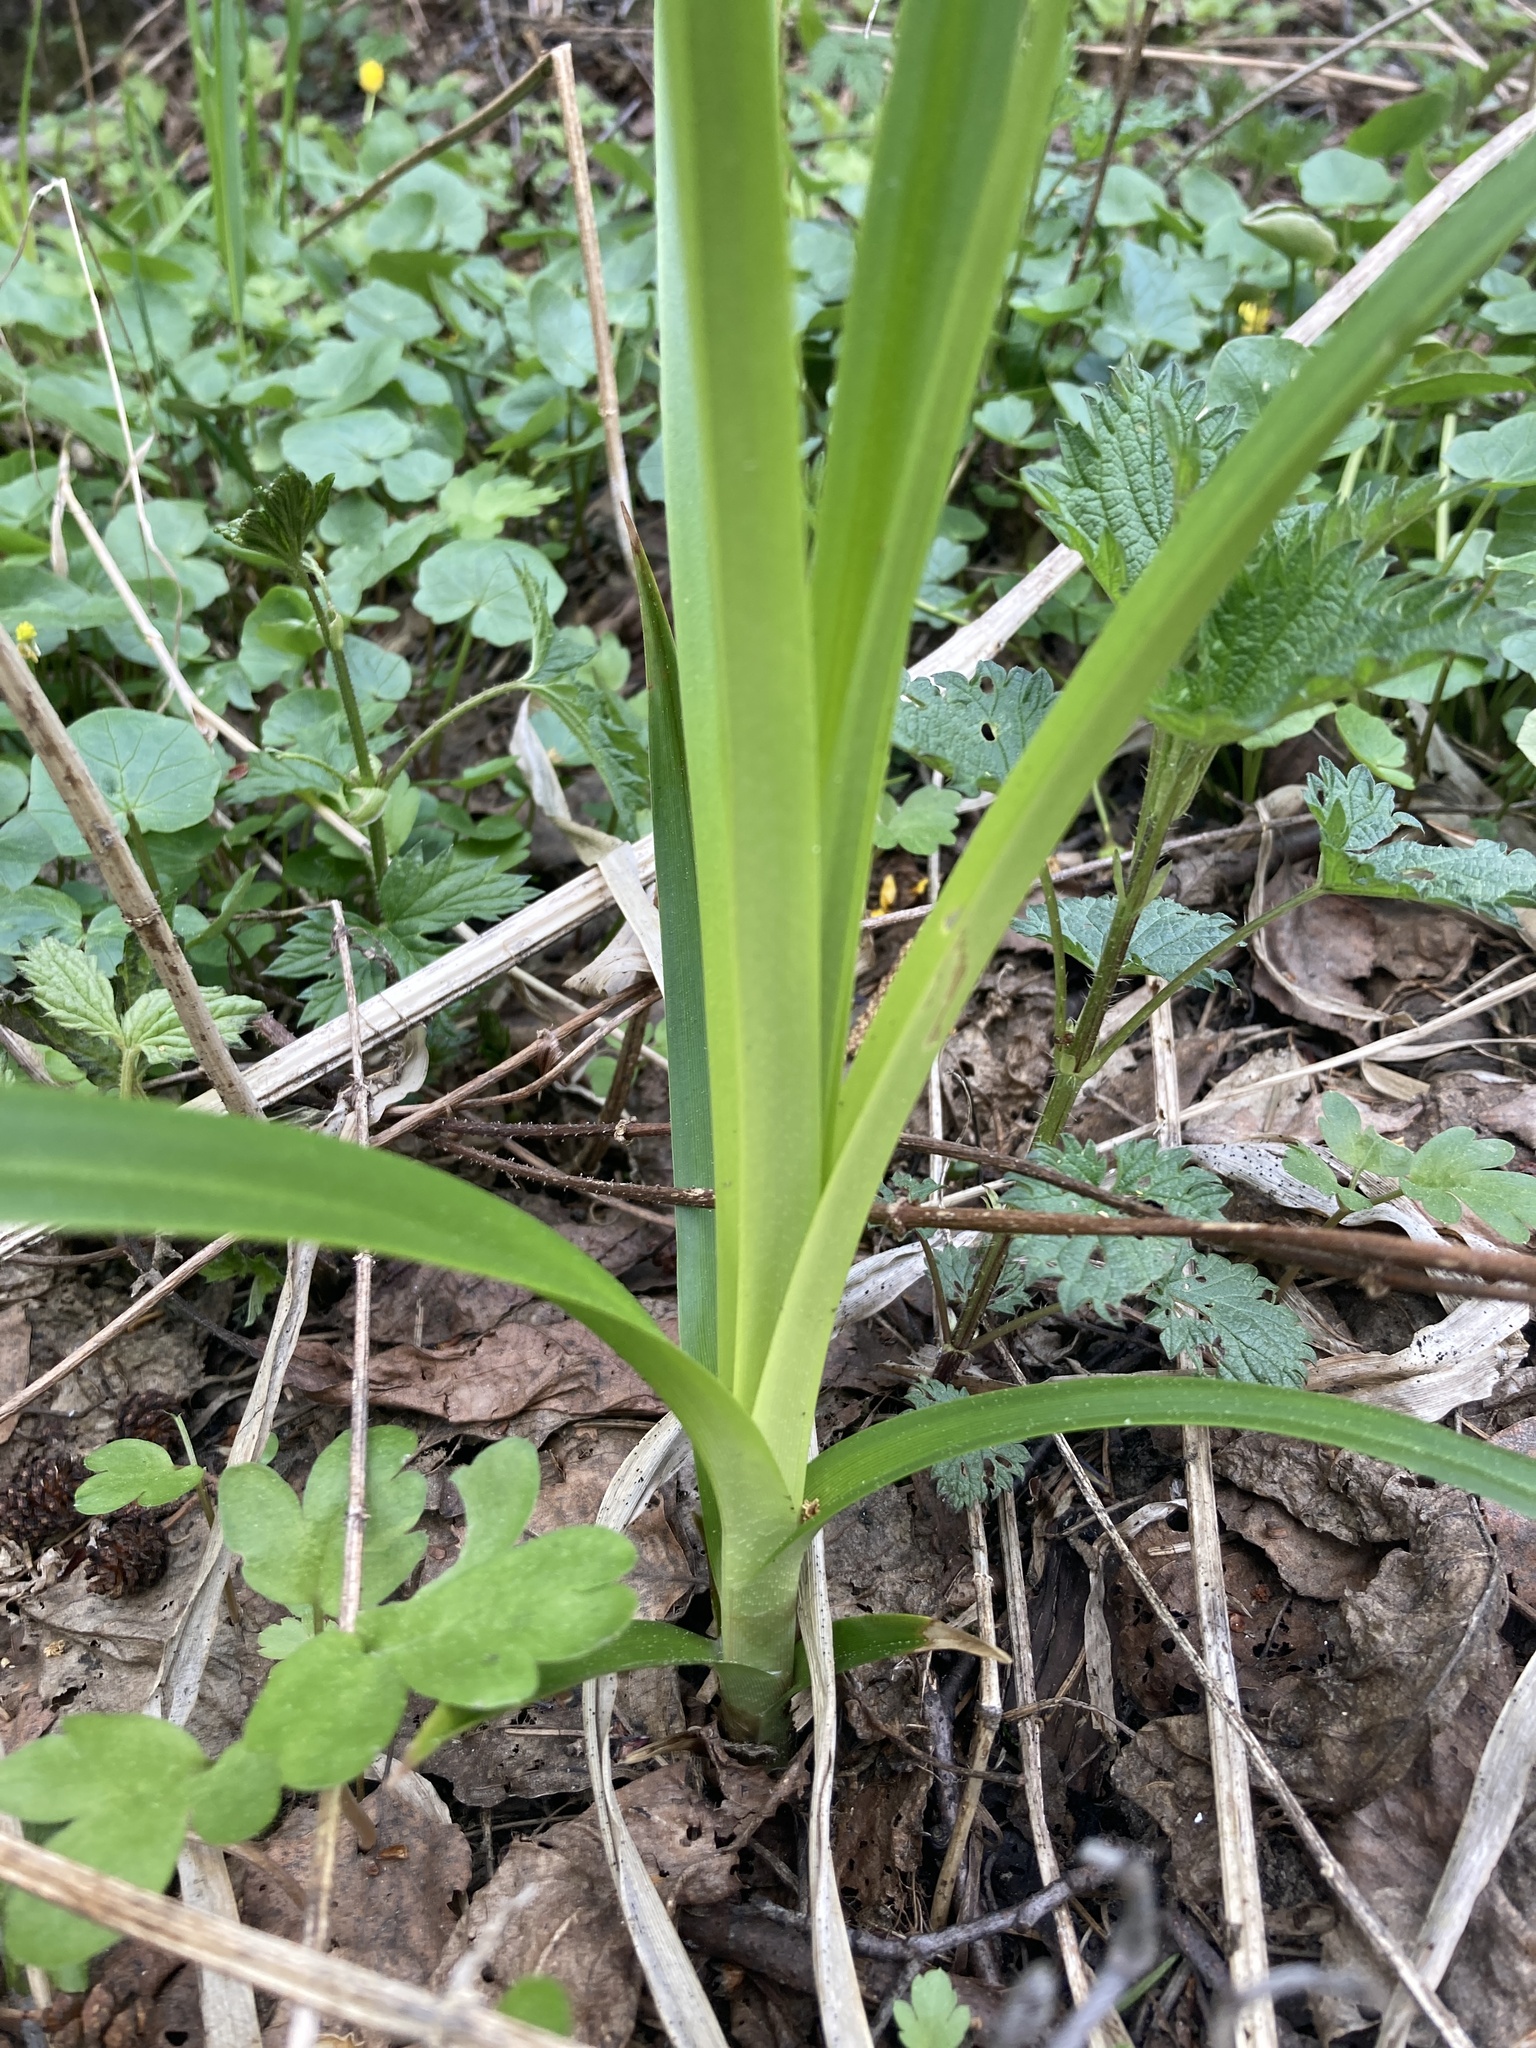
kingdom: Plantae
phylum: Tracheophyta
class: Liliopsida
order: Poales
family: Cyperaceae
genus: Scirpus
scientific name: Scirpus sylvaticus
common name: Wood club-rush
